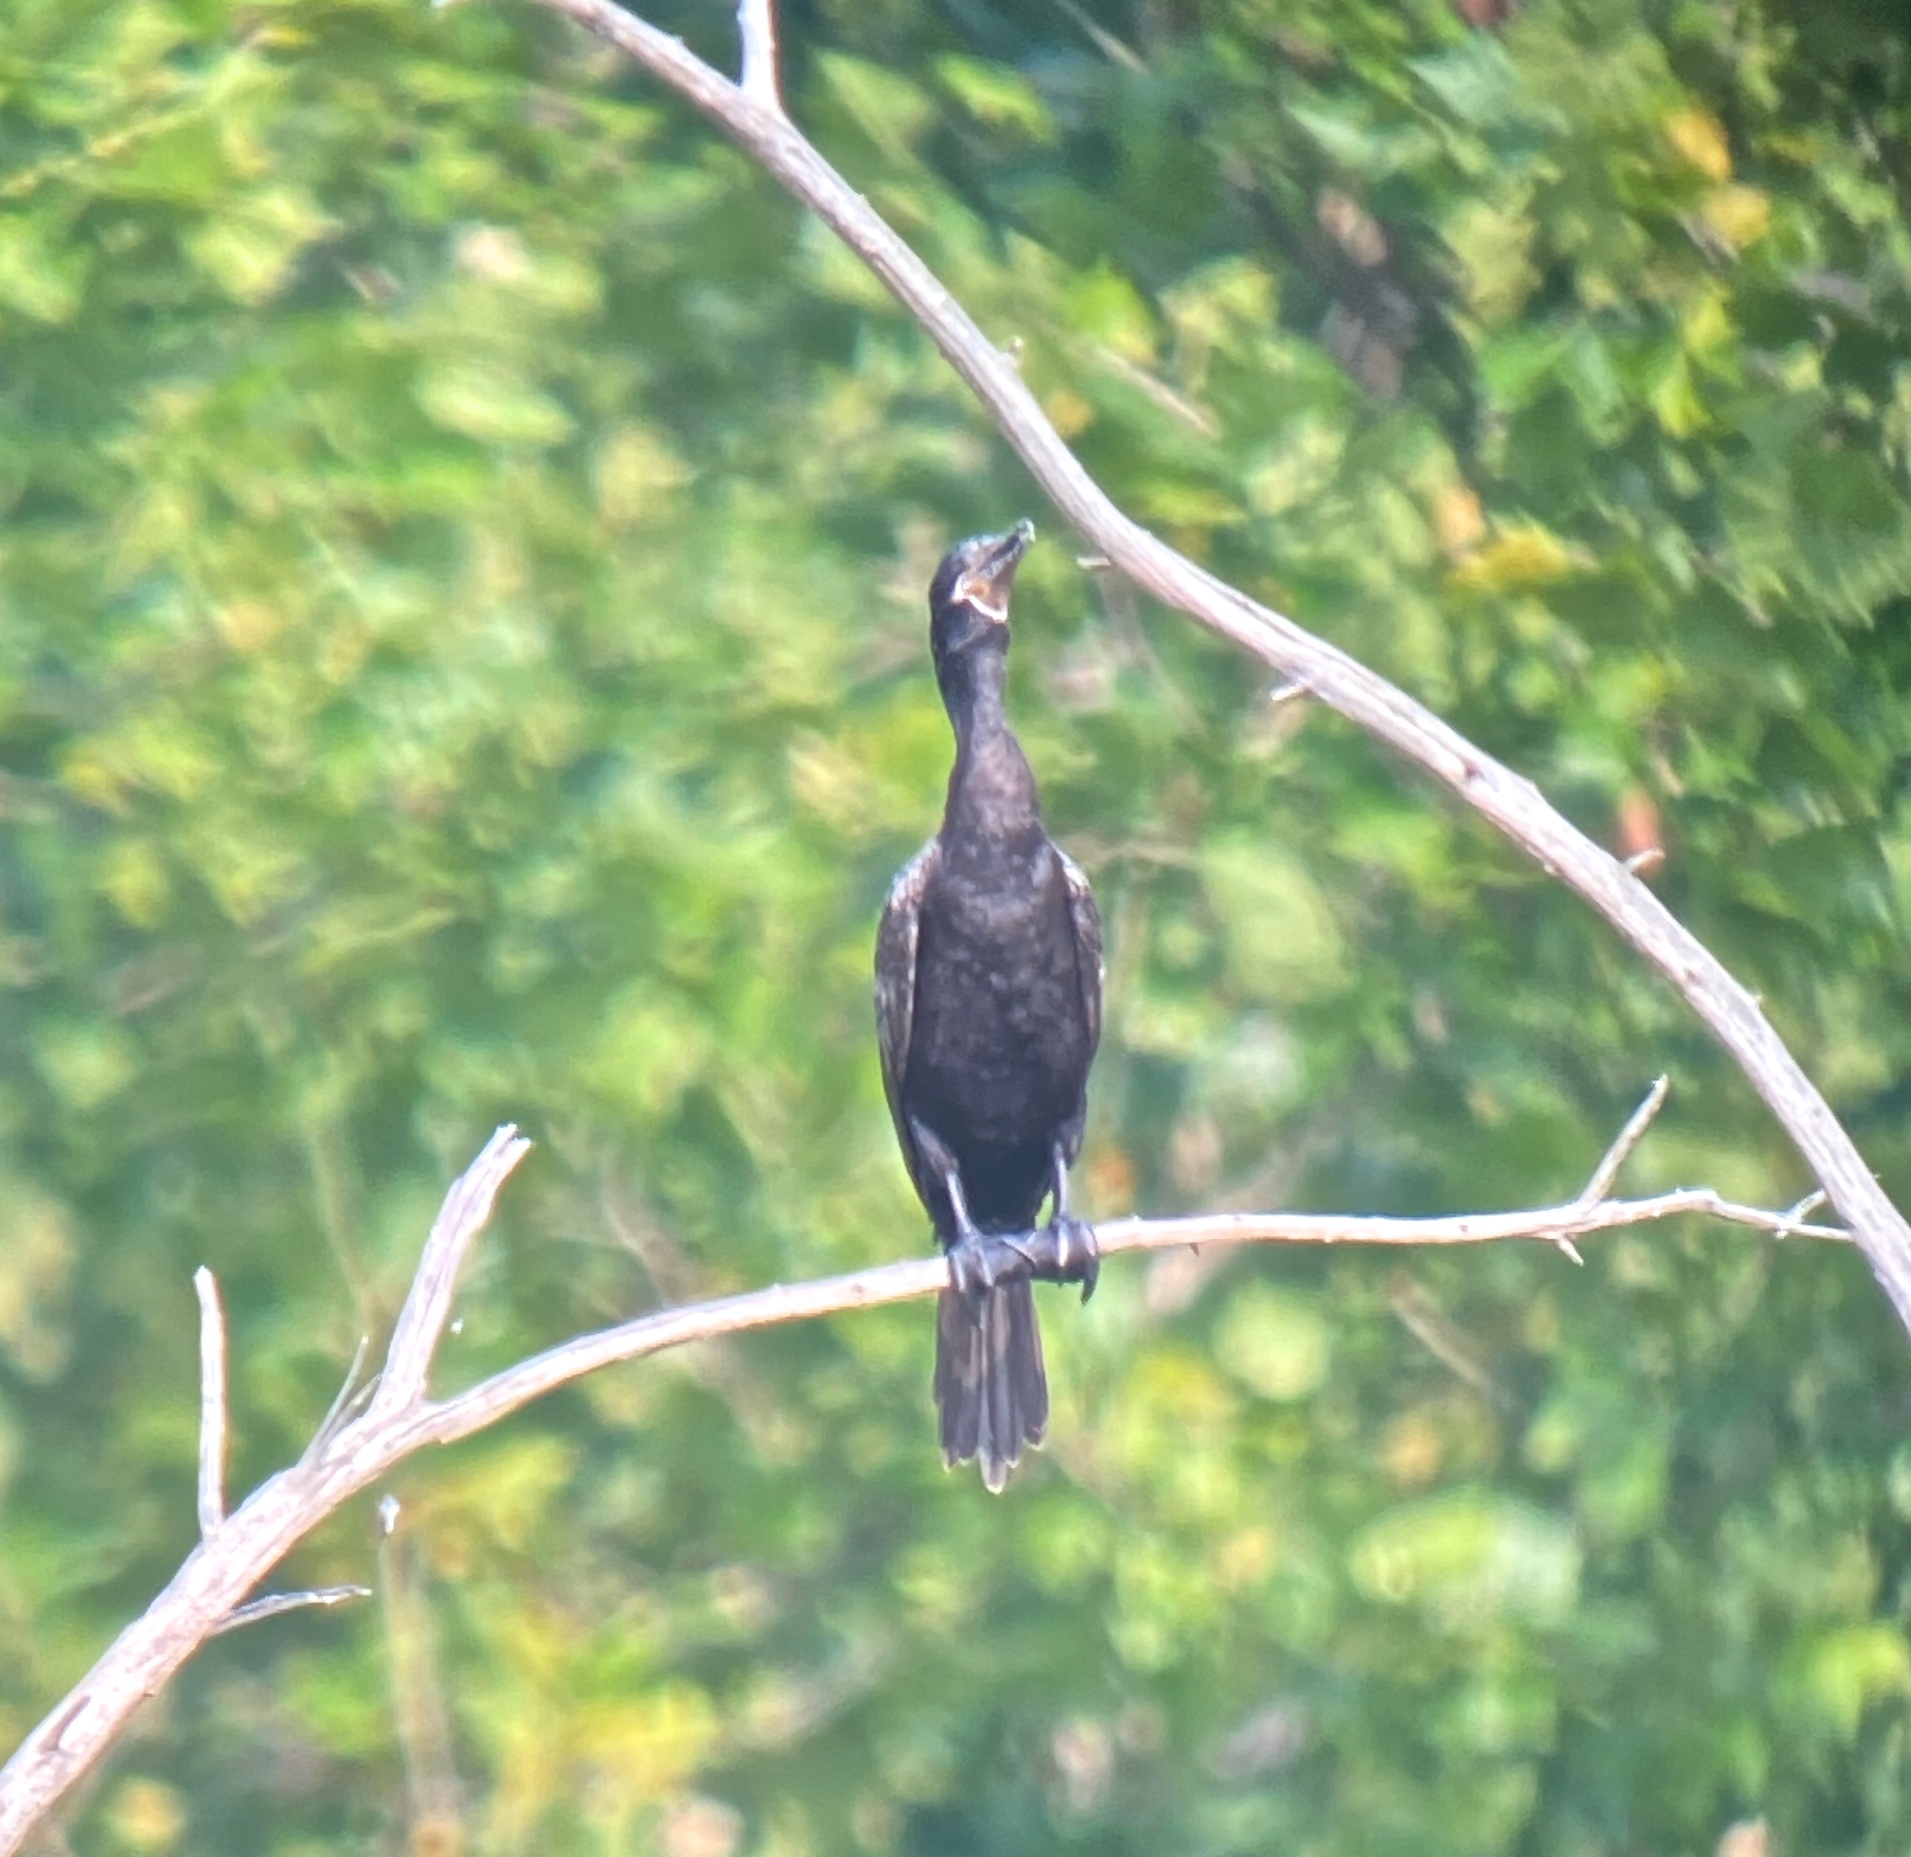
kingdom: Animalia
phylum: Chordata
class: Aves
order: Suliformes
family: Phalacrocoracidae
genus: Phalacrocorax
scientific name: Phalacrocorax brasilianus
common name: Neotropic cormorant
